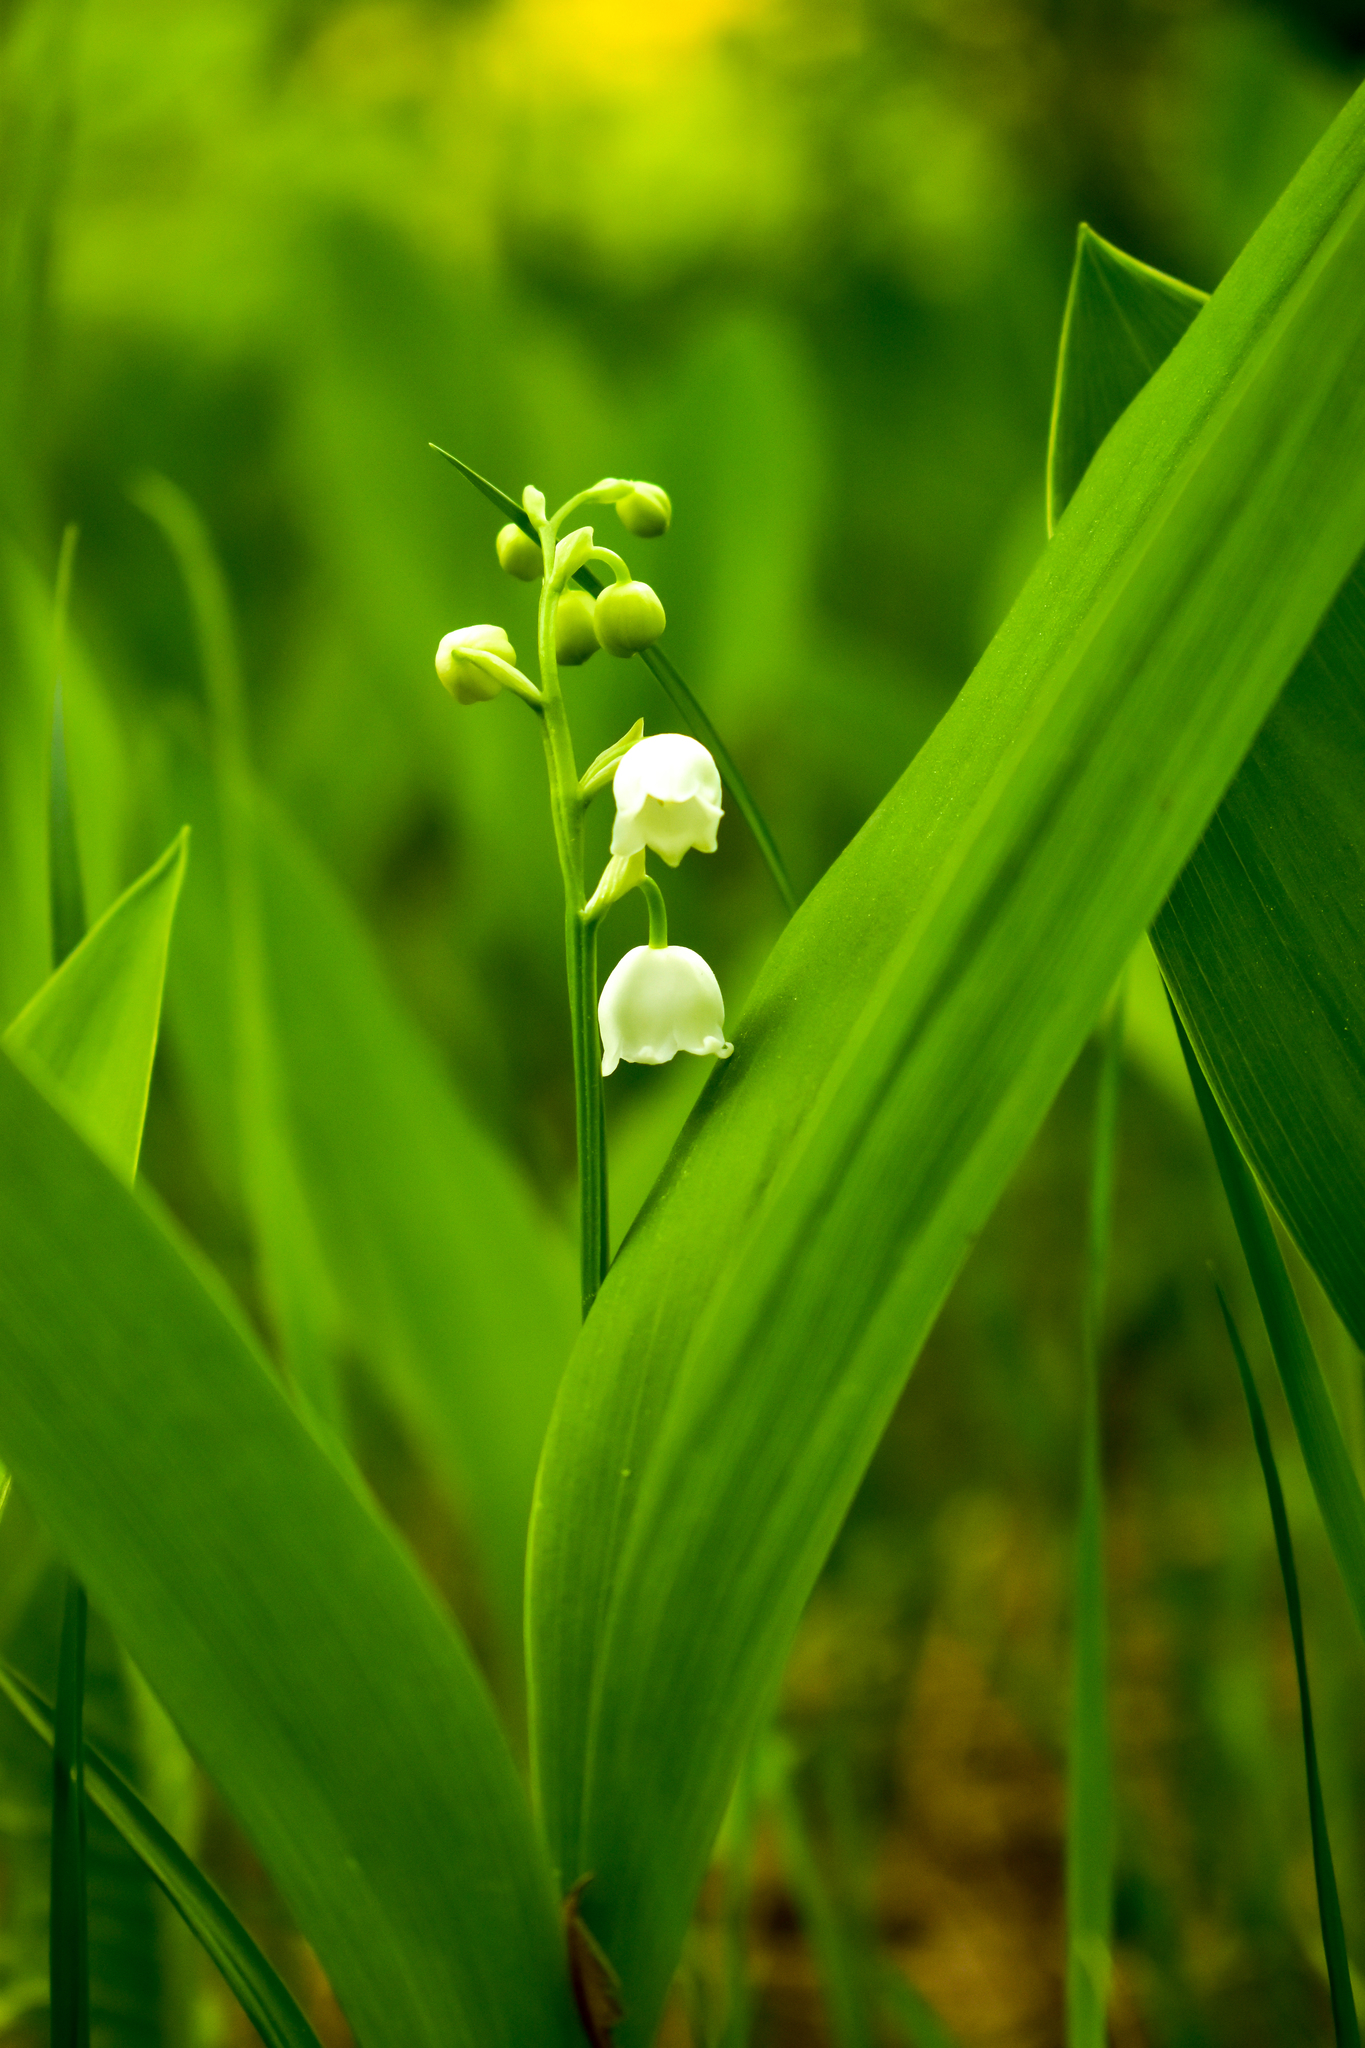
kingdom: Plantae
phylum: Tracheophyta
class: Liliopsida
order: Asparagales
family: Asparagaceae
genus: Convallaria
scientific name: Convallaria majalis
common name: Lily-of-the-valley
